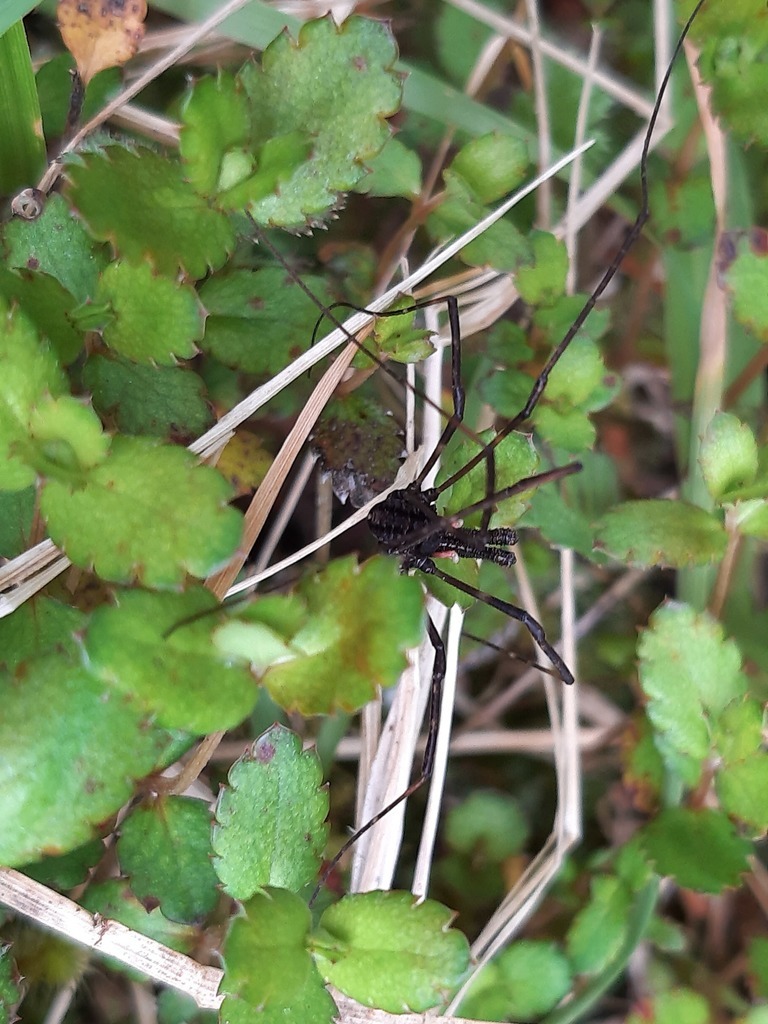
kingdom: Animalia
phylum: Arthropoda
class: Arachnida
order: Opiliones
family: Neopilionidae
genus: Forsteropsalis
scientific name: Forsteropsalis inconstans
